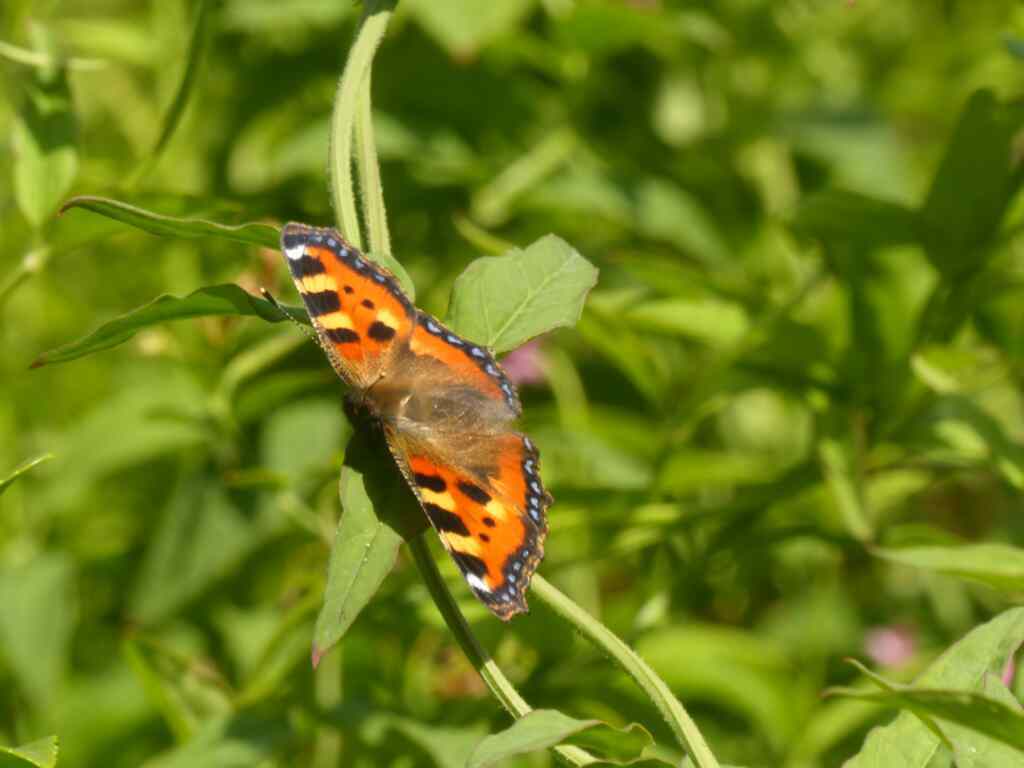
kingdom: Animalia
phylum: Arthropoda
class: Insecta
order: Lepidoptera
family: Nymphalidae
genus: Aglais
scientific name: Aglais urticae
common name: Small tortoiseshell
